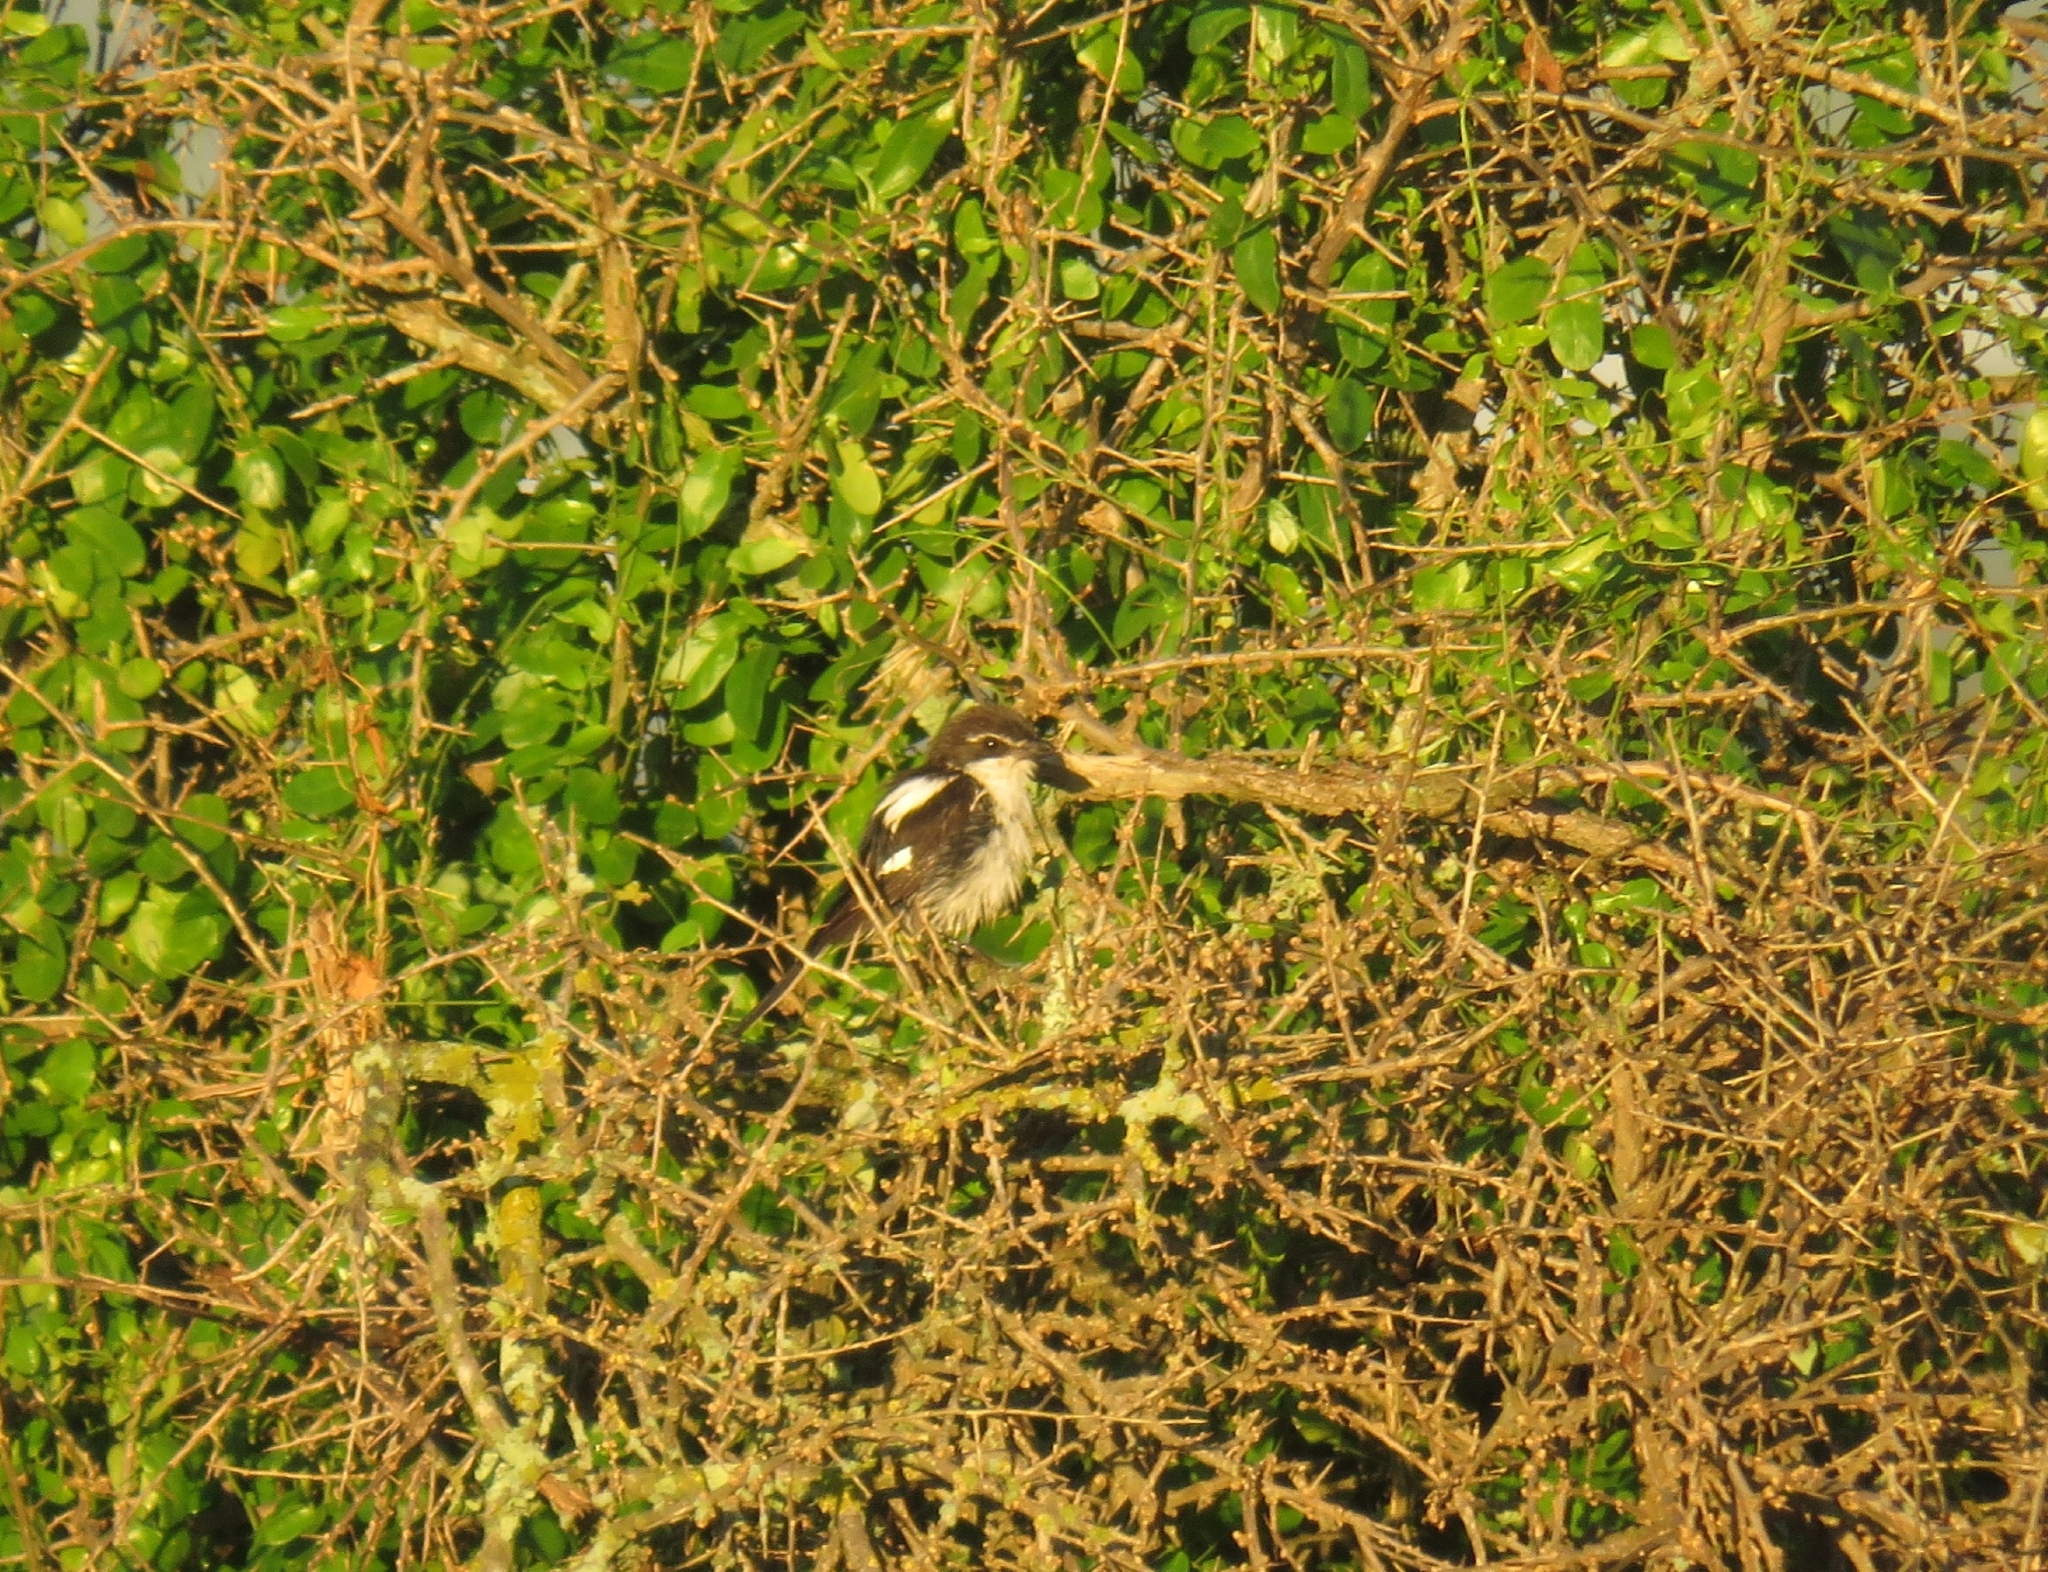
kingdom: Animalia
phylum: Chordata
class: Aves
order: Passeriformes
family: Laniidae
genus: Lanius
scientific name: Lanius collaris
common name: Southern fiscal
